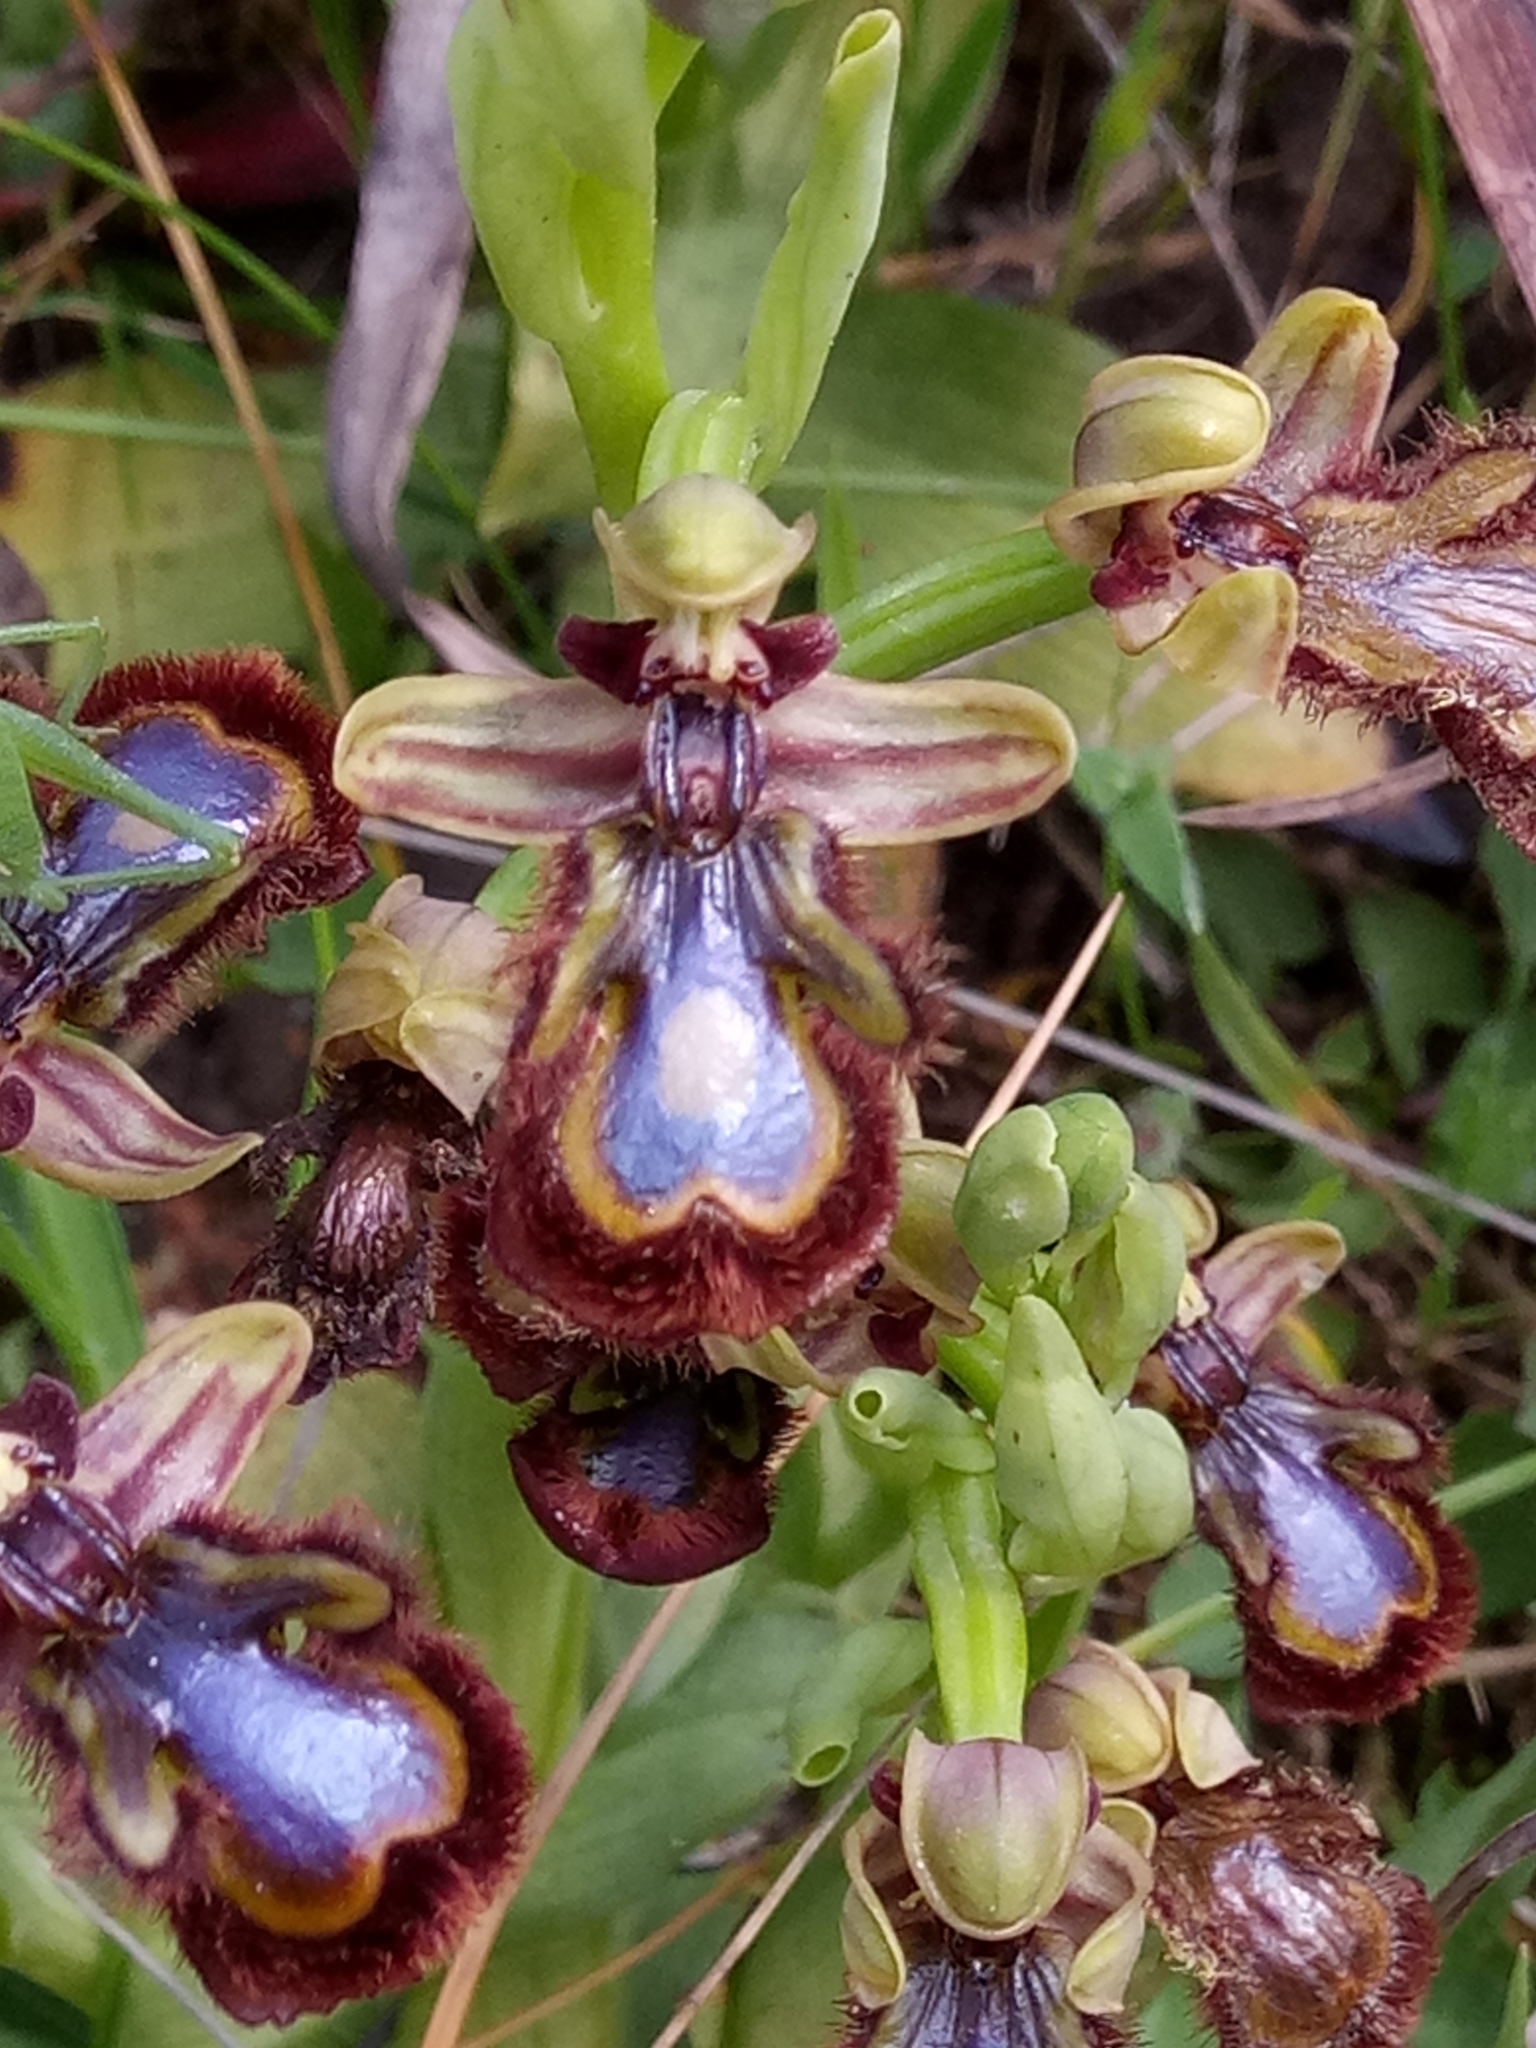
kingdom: Plantae
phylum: Tracheophyta
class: Liliopsida
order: Asparagales
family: Orchidaceae
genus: Ophrys
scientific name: Ophrys speculum
